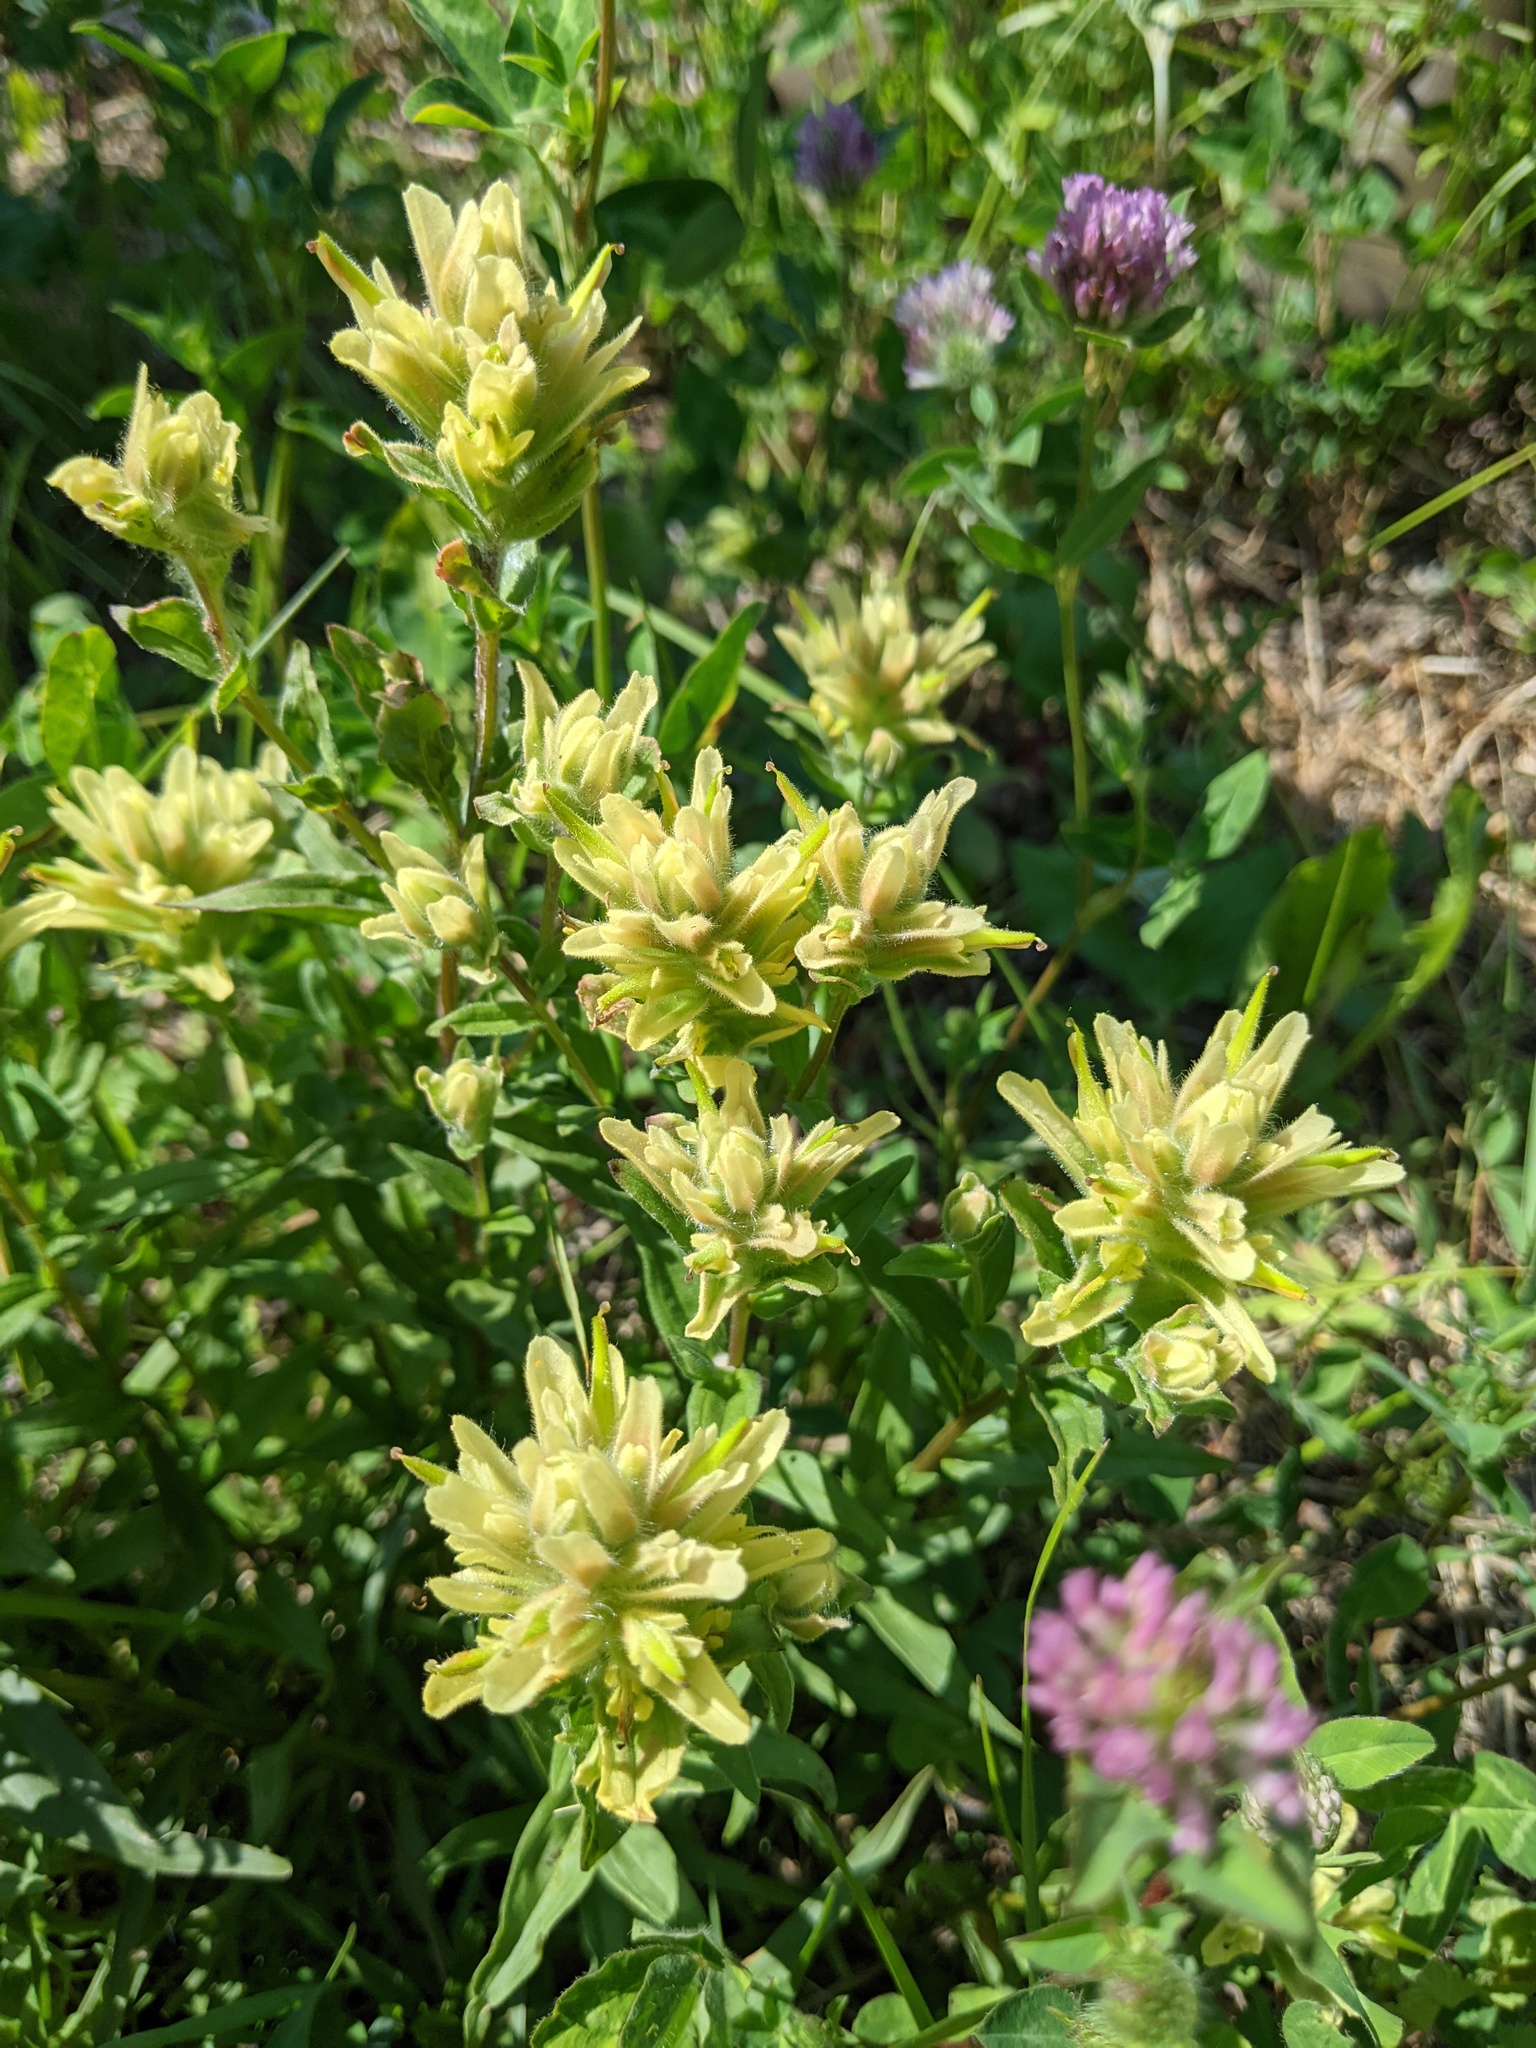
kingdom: Plantae
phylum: Tracheophyta
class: Magnoliopsida
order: Lamiales
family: Orobanchaceae
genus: Castilleja
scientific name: Castilleja lutescens
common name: Yellowish paintbrush
